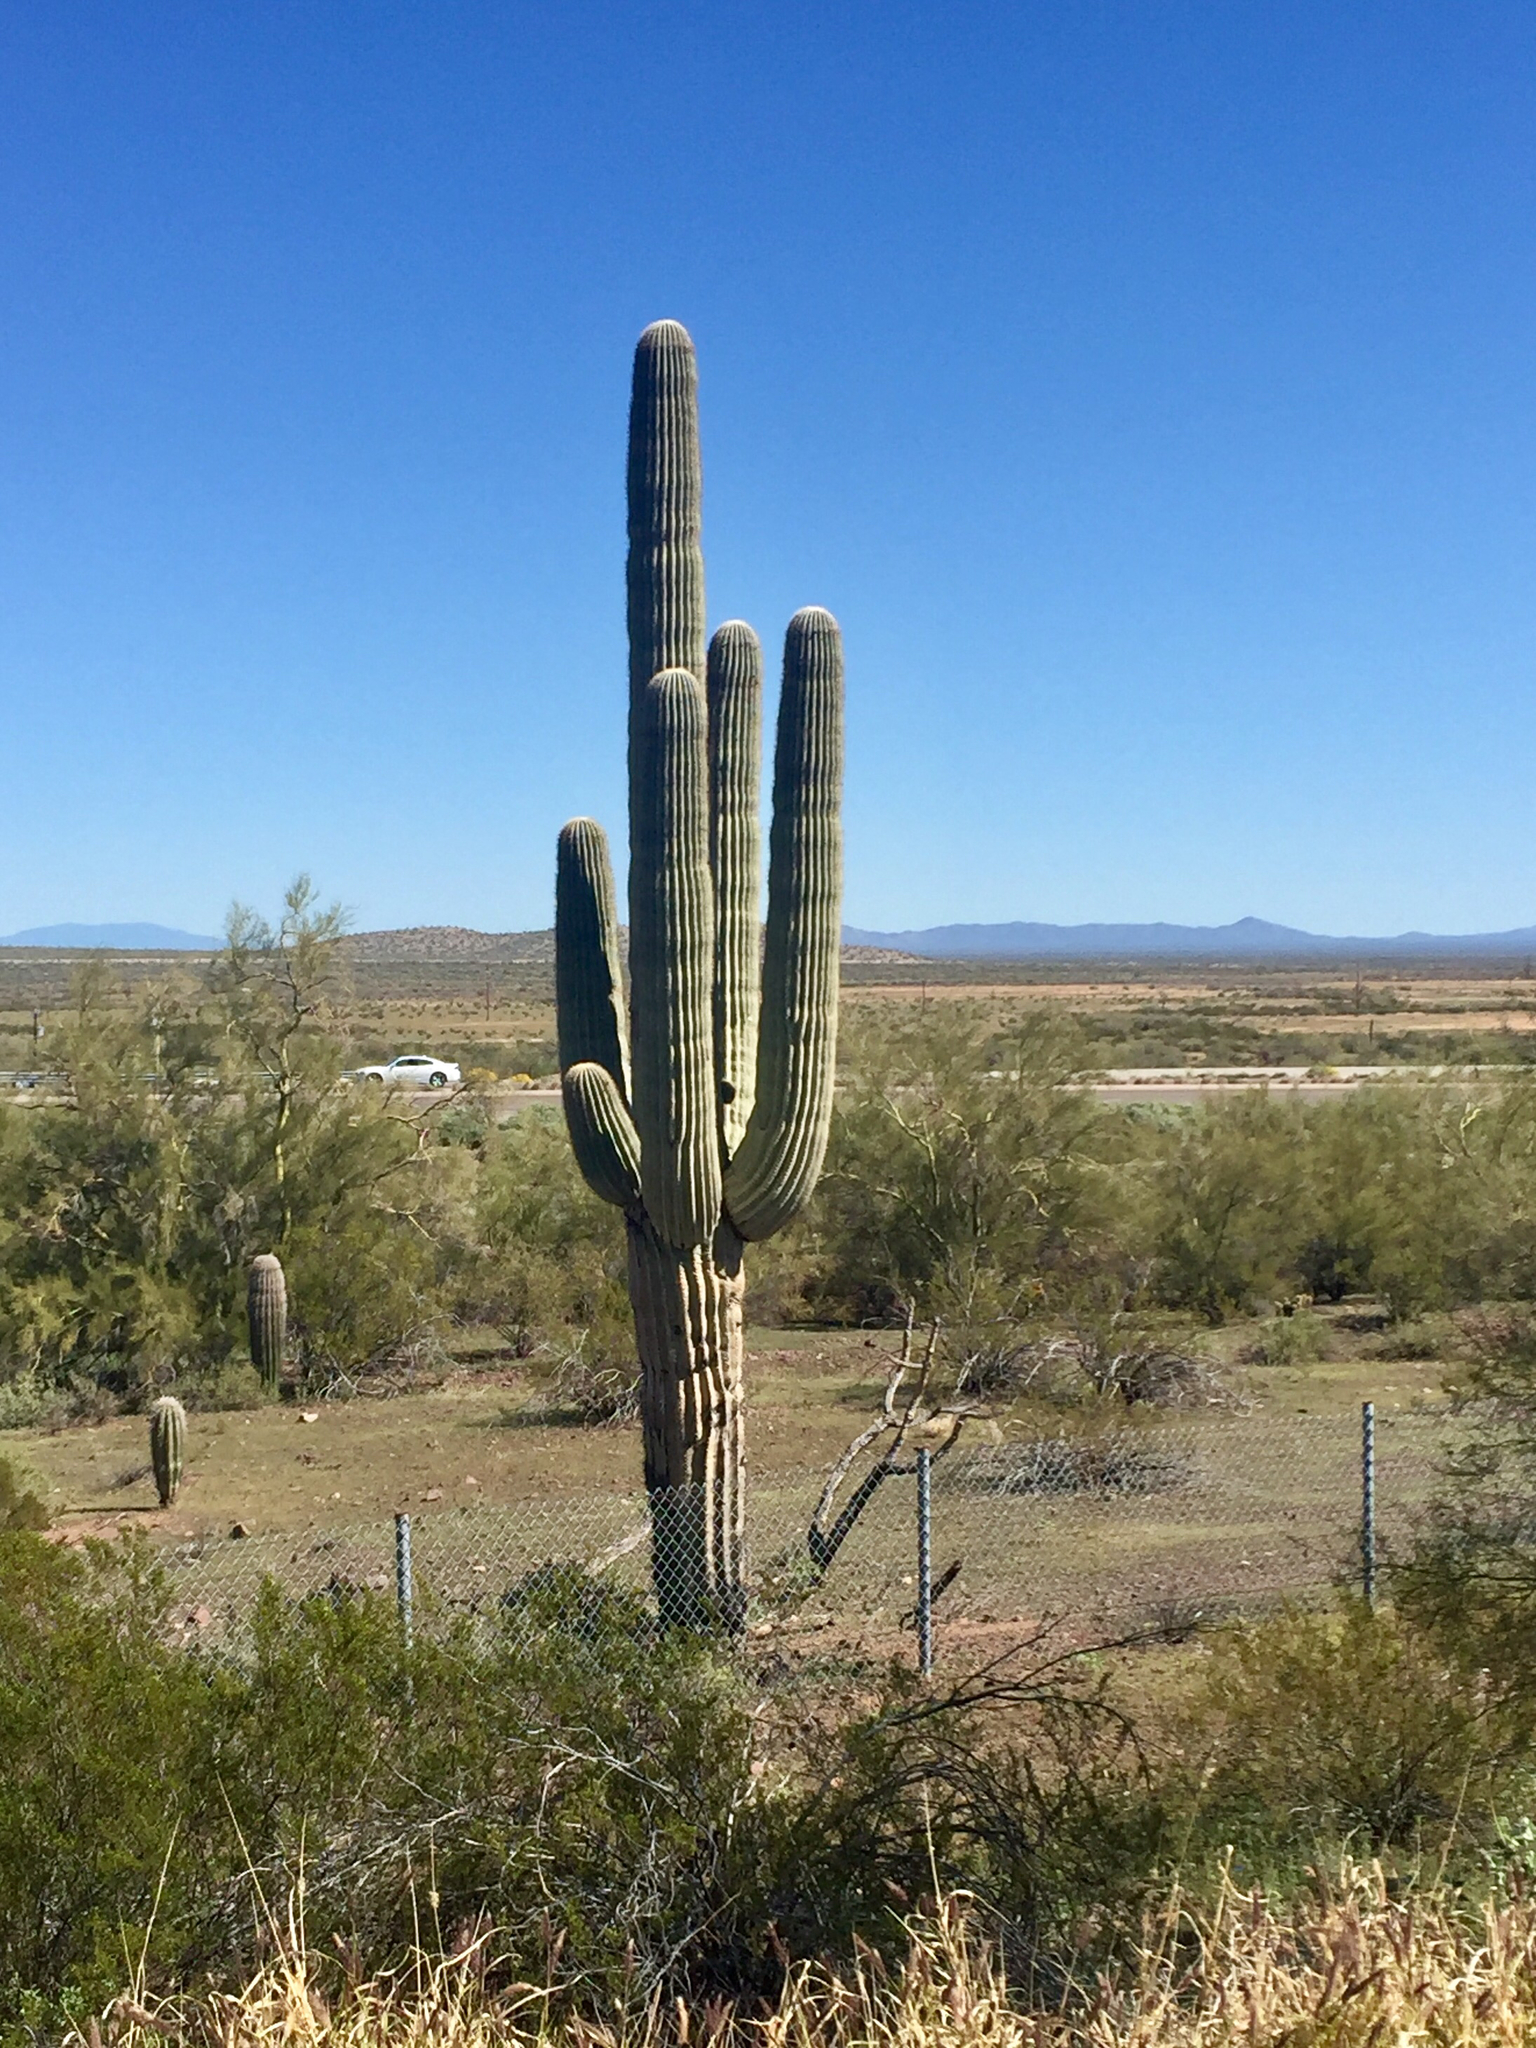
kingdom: Plantae
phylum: Tracheophyta
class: Magnoliopsida
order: Caryophyllales
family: Cactaceae
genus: Carnegiea
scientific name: Carnegiea gigantea
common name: Saguaro
